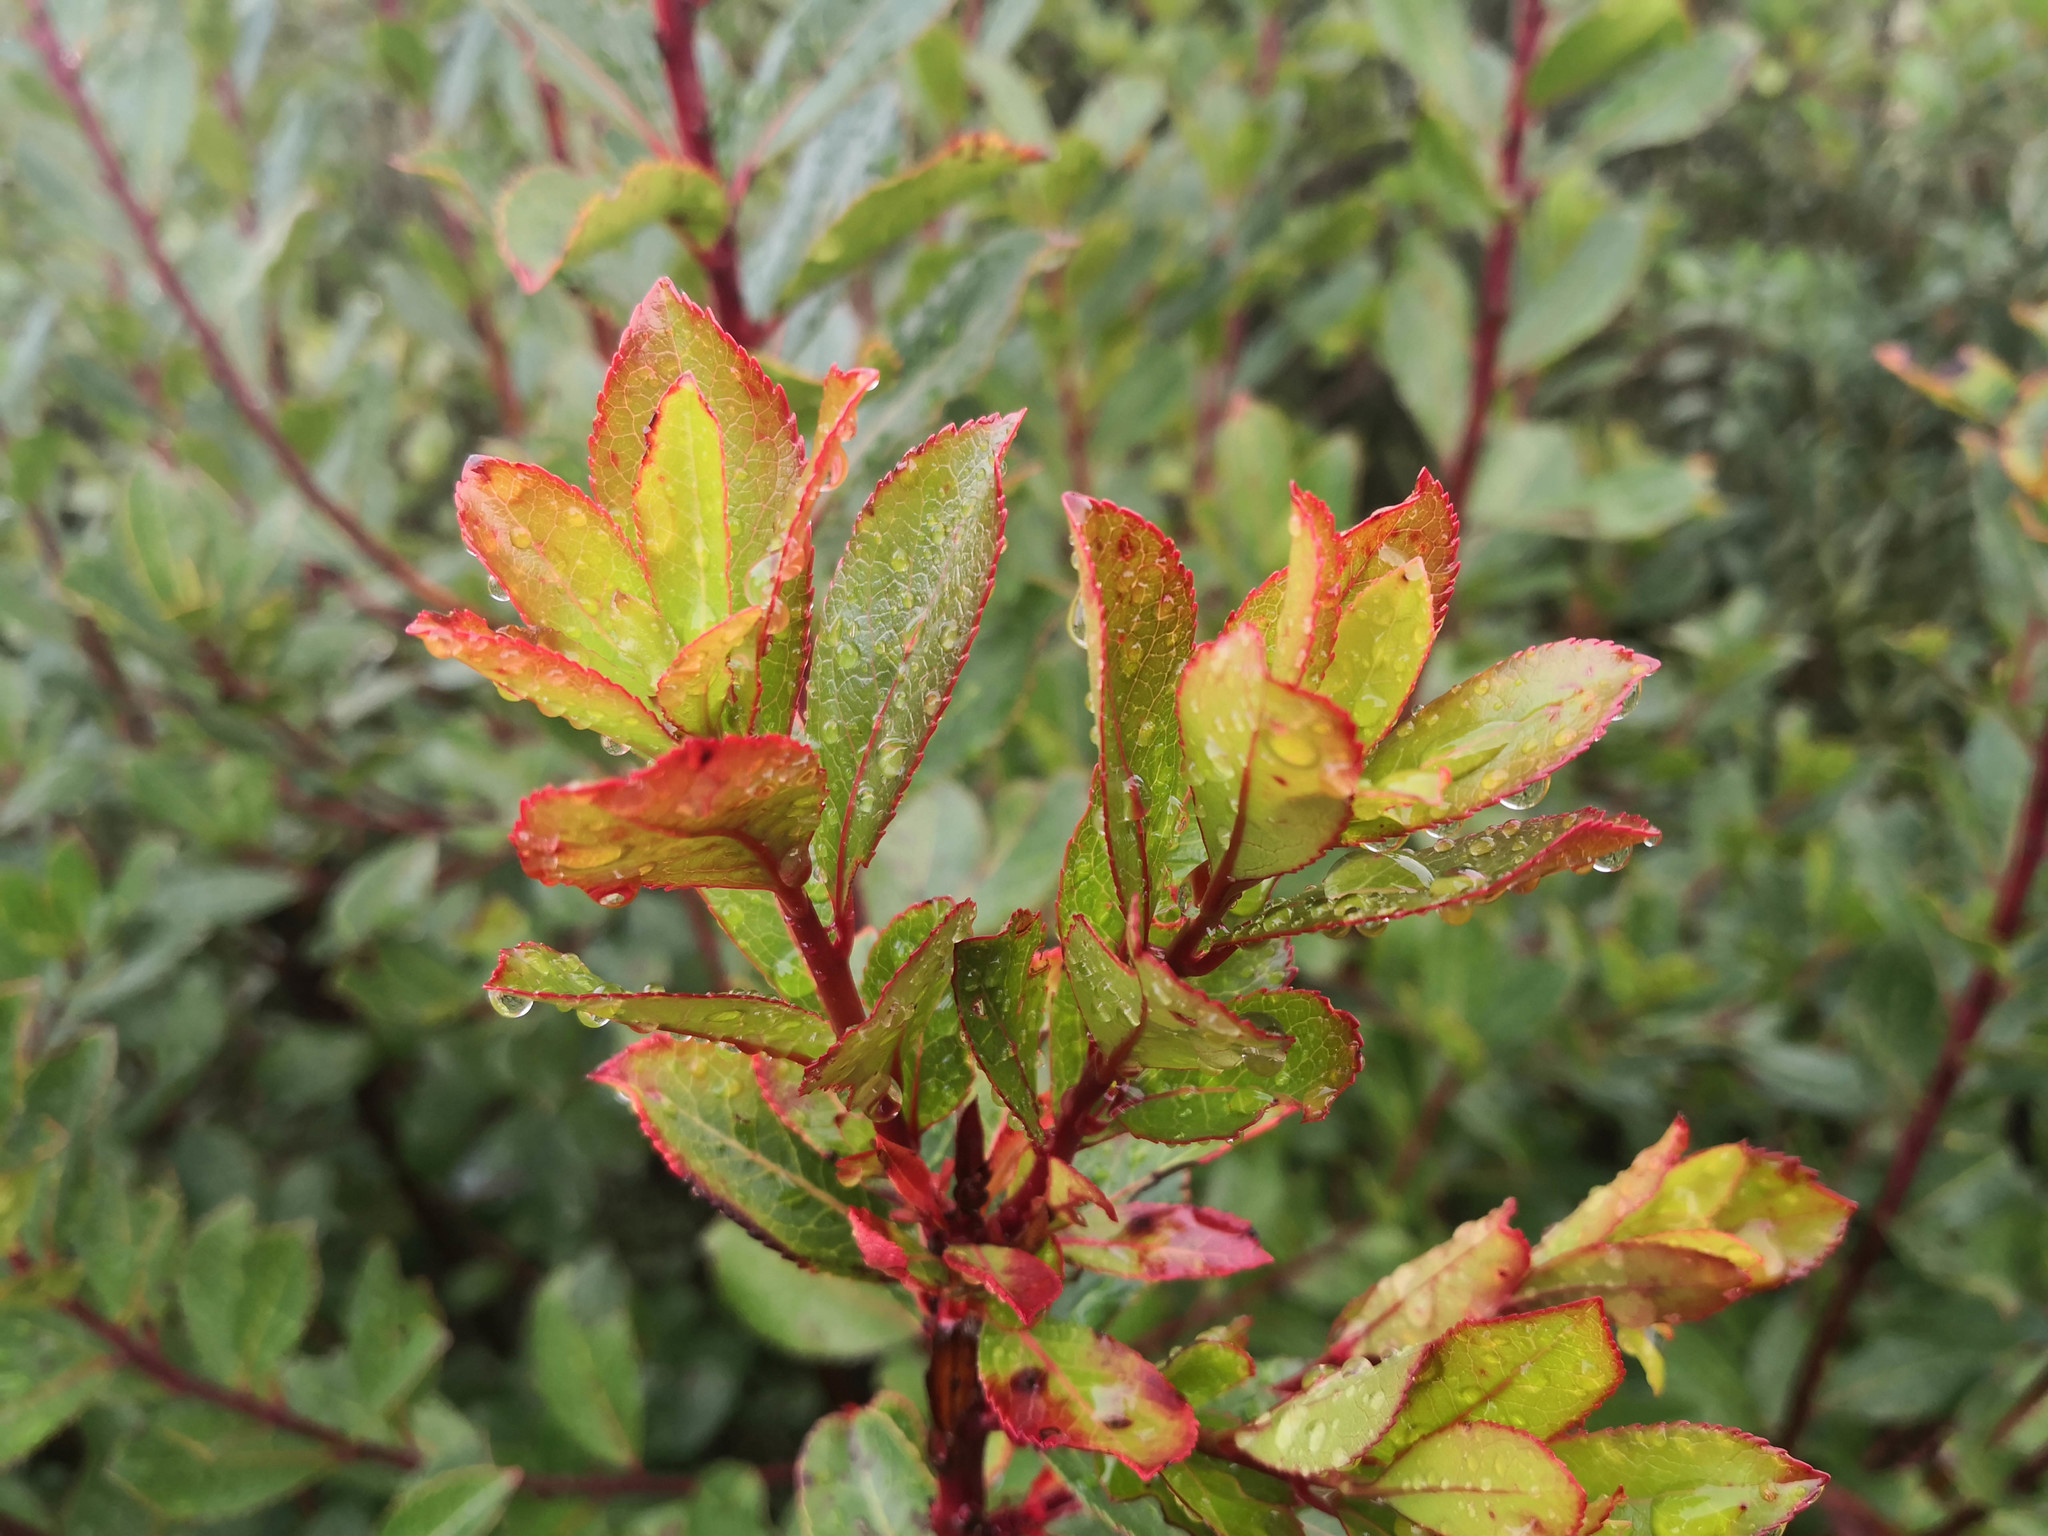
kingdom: Plantae
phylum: Tracheophyta
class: Magnoliopsida
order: Ericales
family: Ericaceae
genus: Arbutus
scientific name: Arbutus unedo
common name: Strawberry-tree
